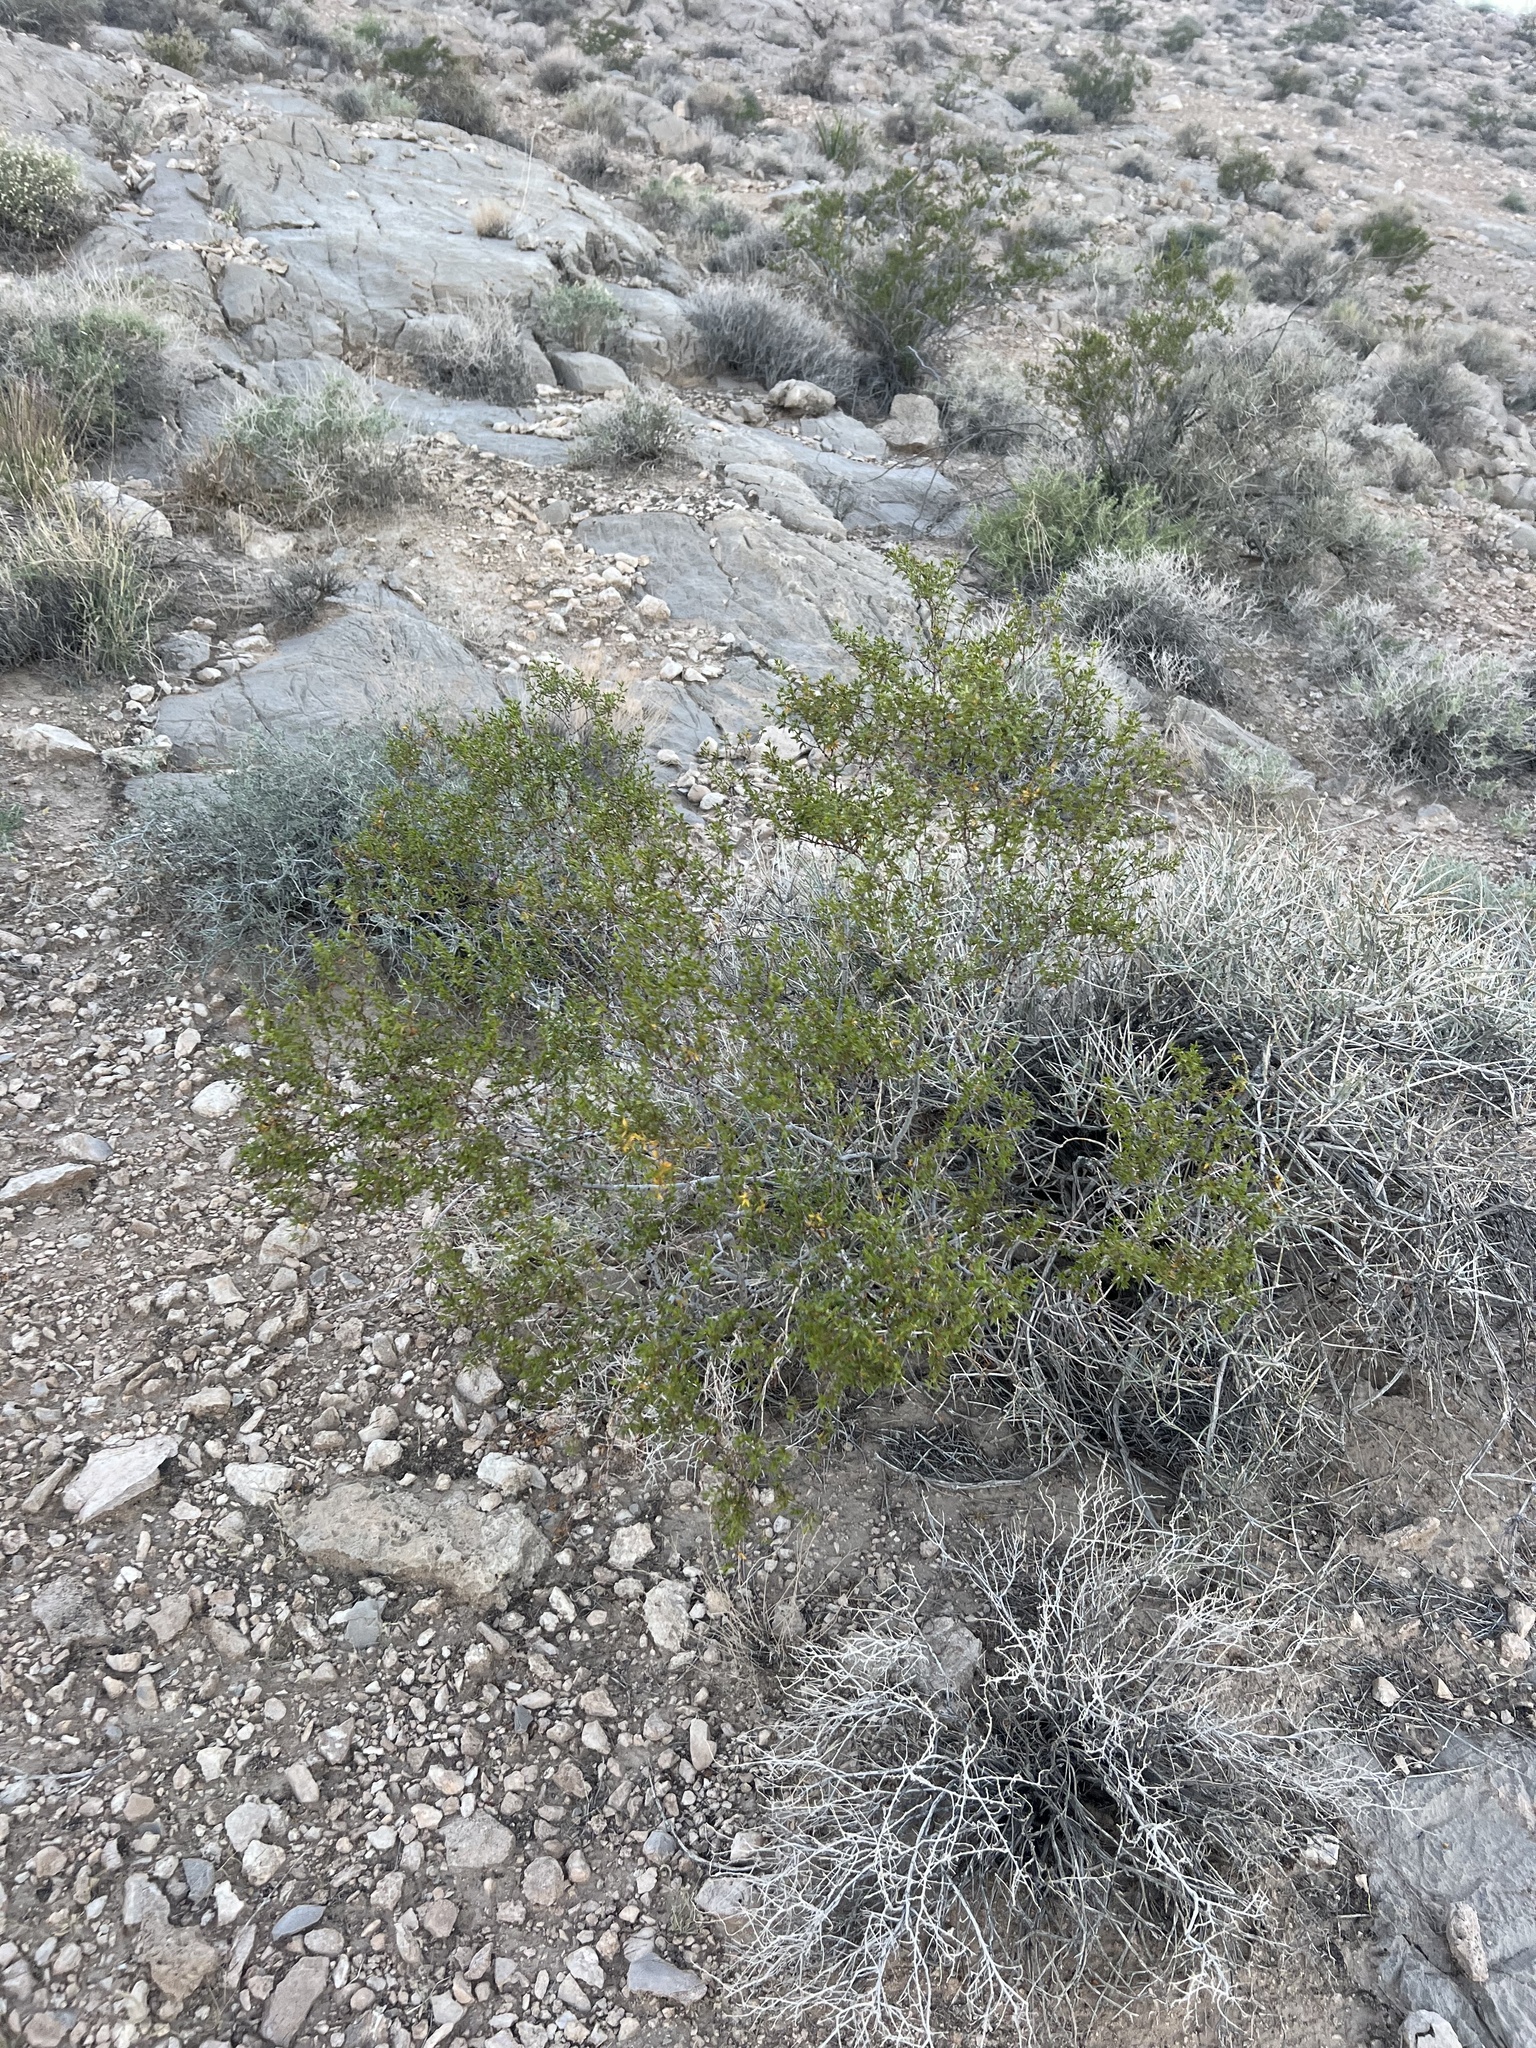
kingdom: Plantae
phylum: Tracheophyta
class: Magnoliopsida
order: Zygophyllales
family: Zygophyllaceae
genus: Larrea
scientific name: Larrea tridentata
